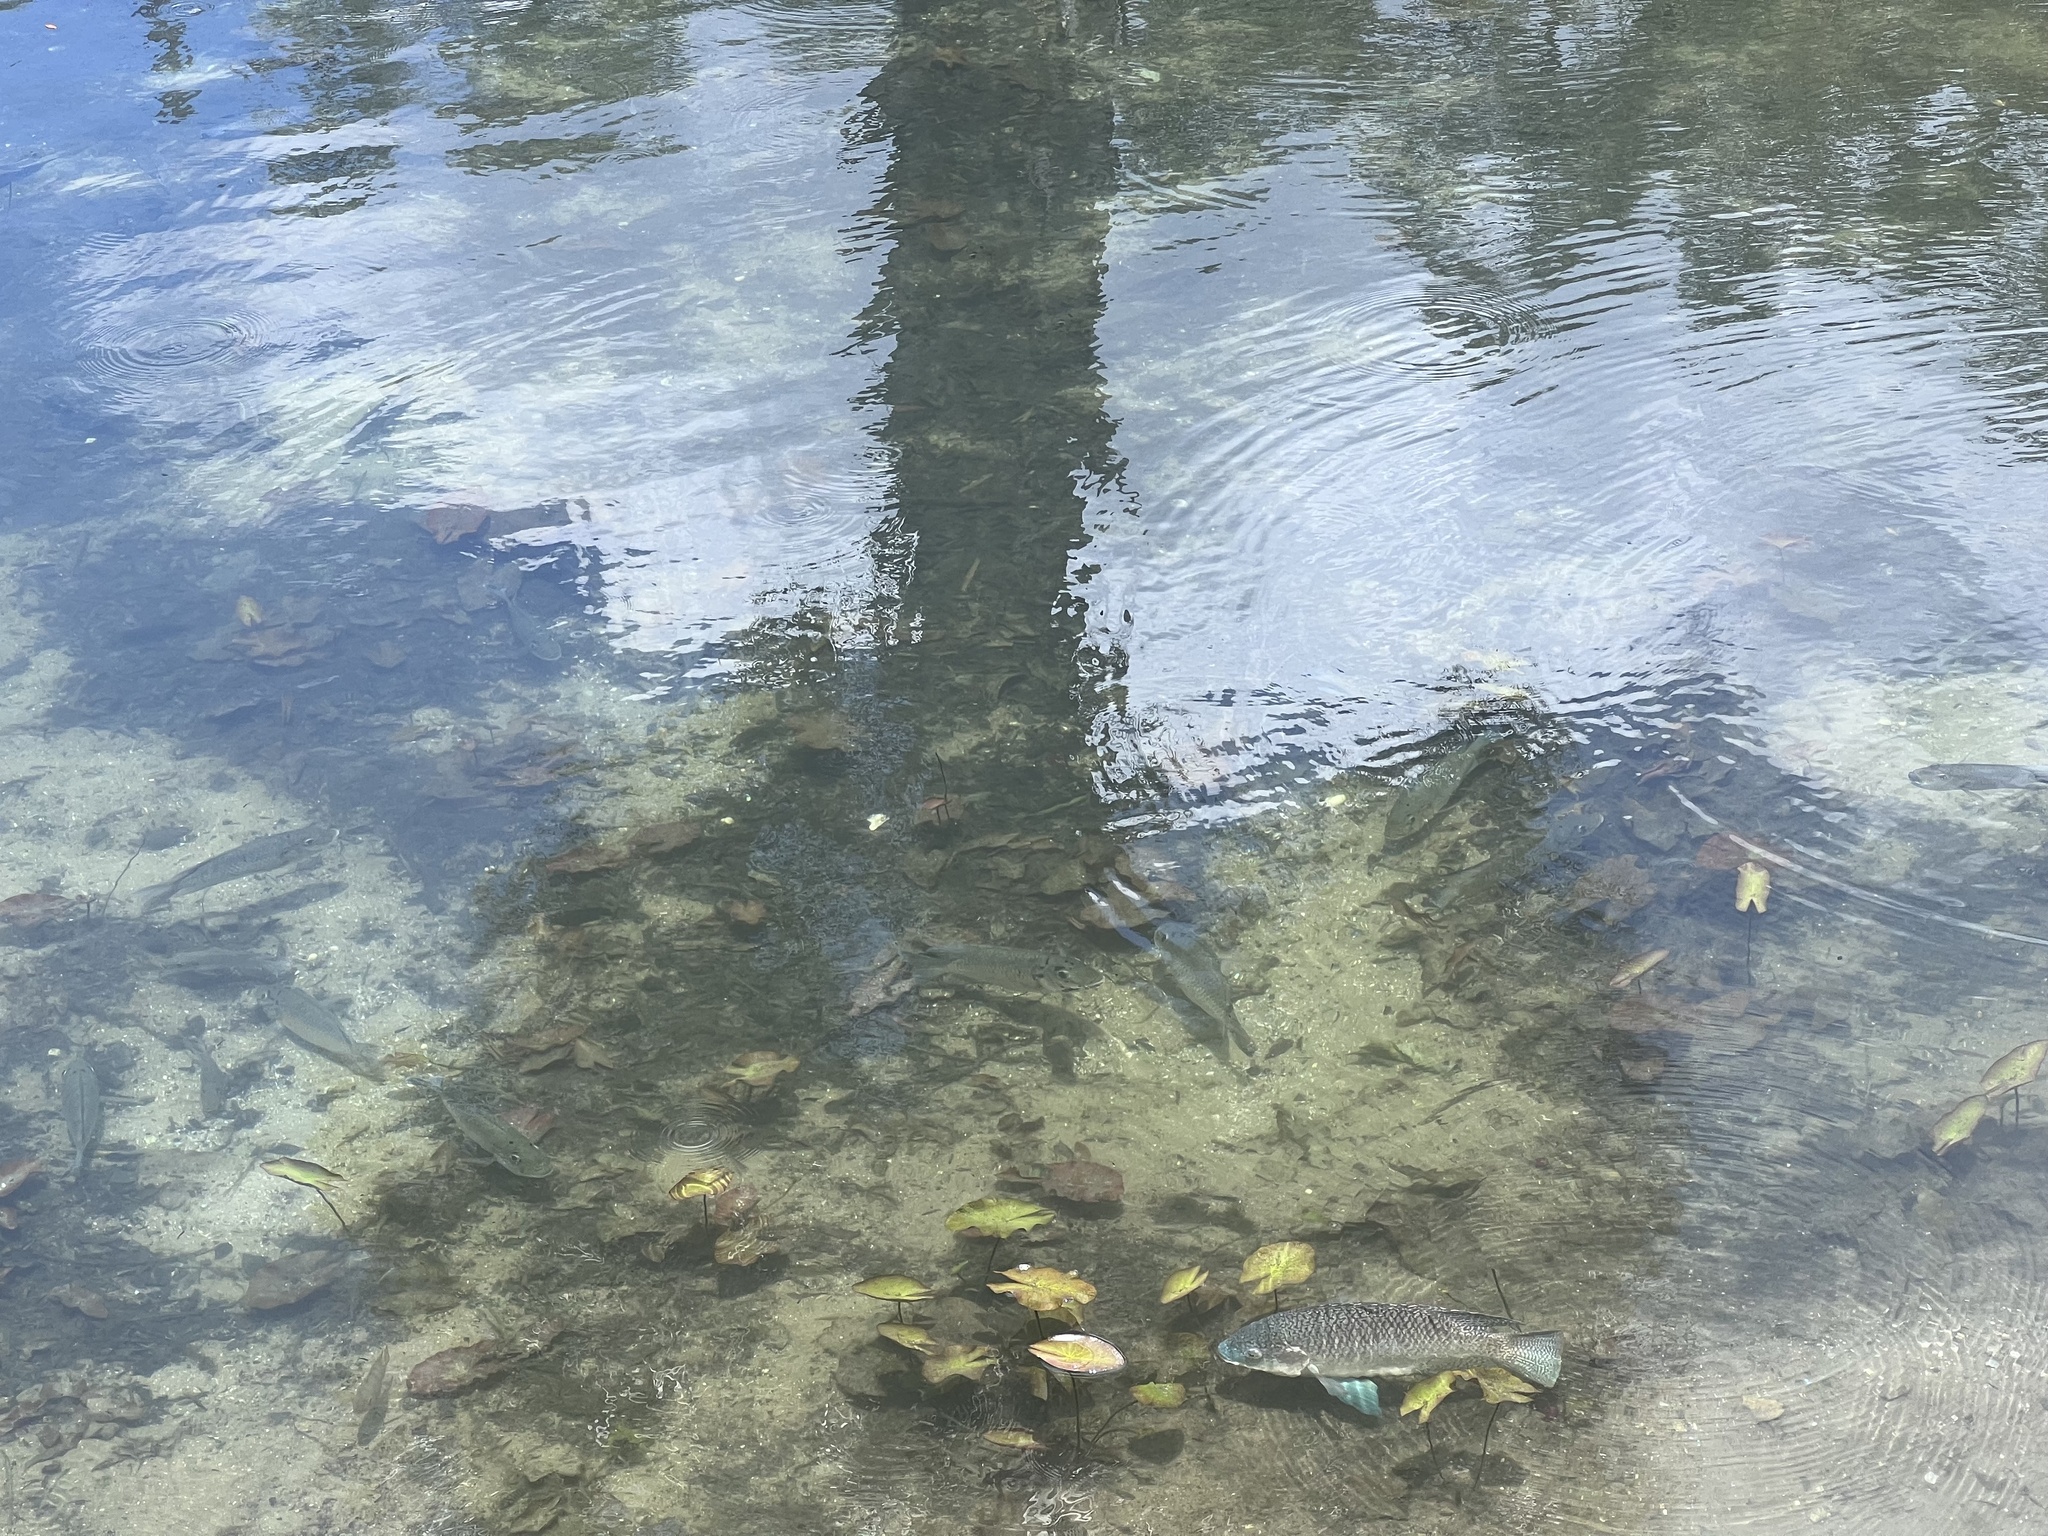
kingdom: Animalia
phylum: Chordata
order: Perciformes
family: Cichlidae
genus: Sarotherodon
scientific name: Sarotherodon melanotheron
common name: Blackchin tilapia
